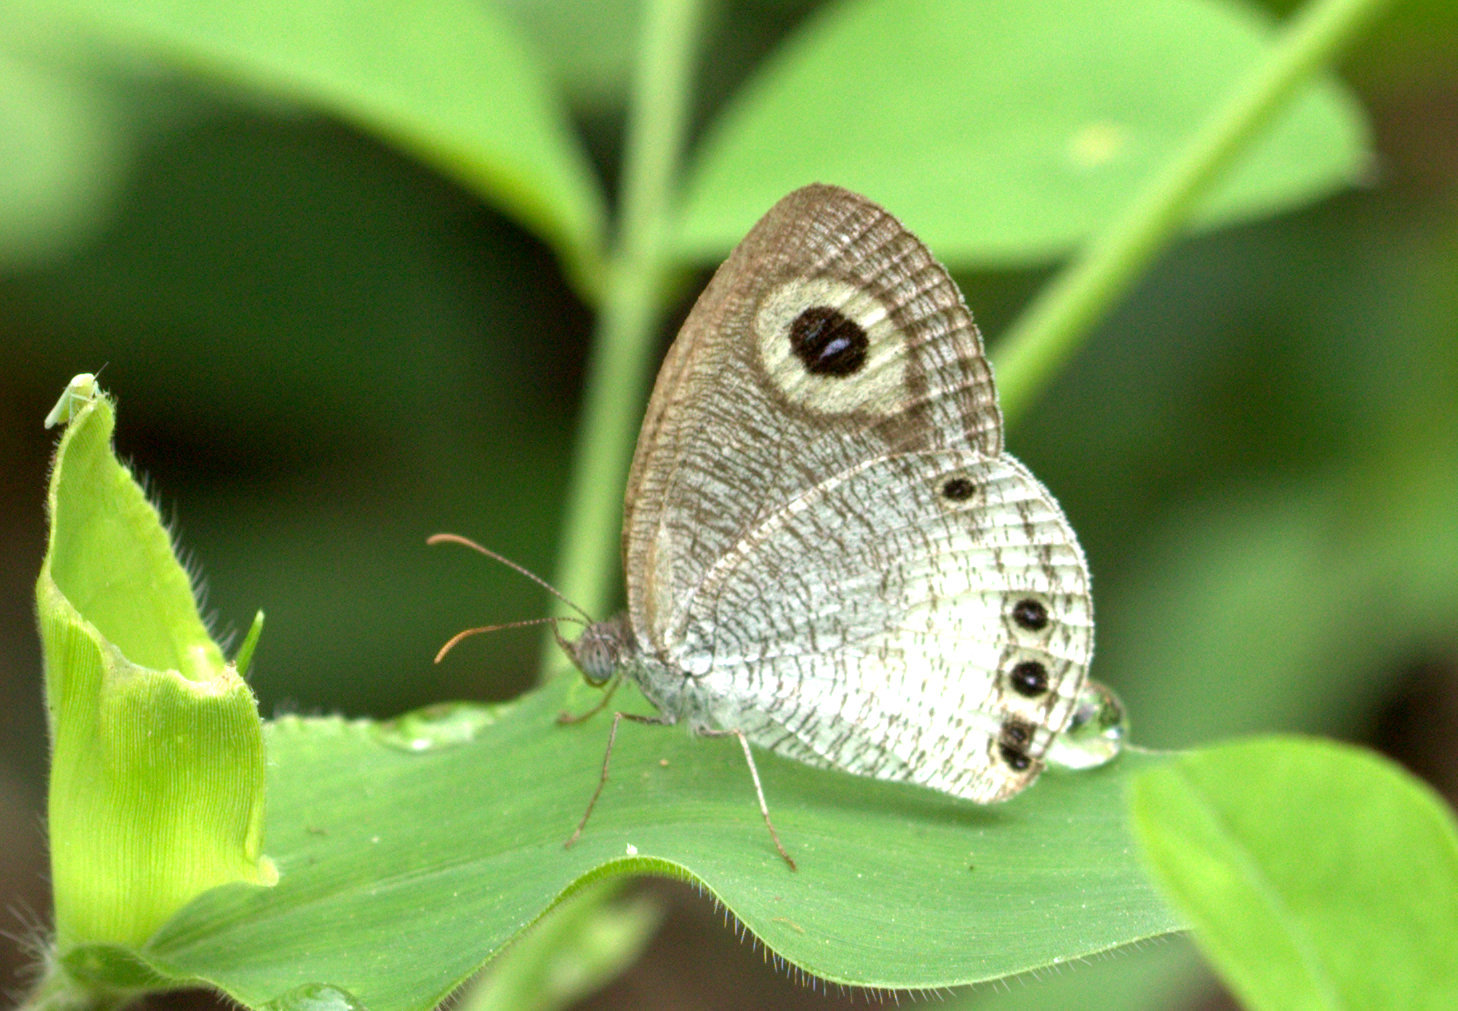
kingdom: Animalia
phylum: Arthropoda
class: Insecta
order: Lepidoptera
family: Nymphalidae
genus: Ypthima
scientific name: Ypthima ceylonica
